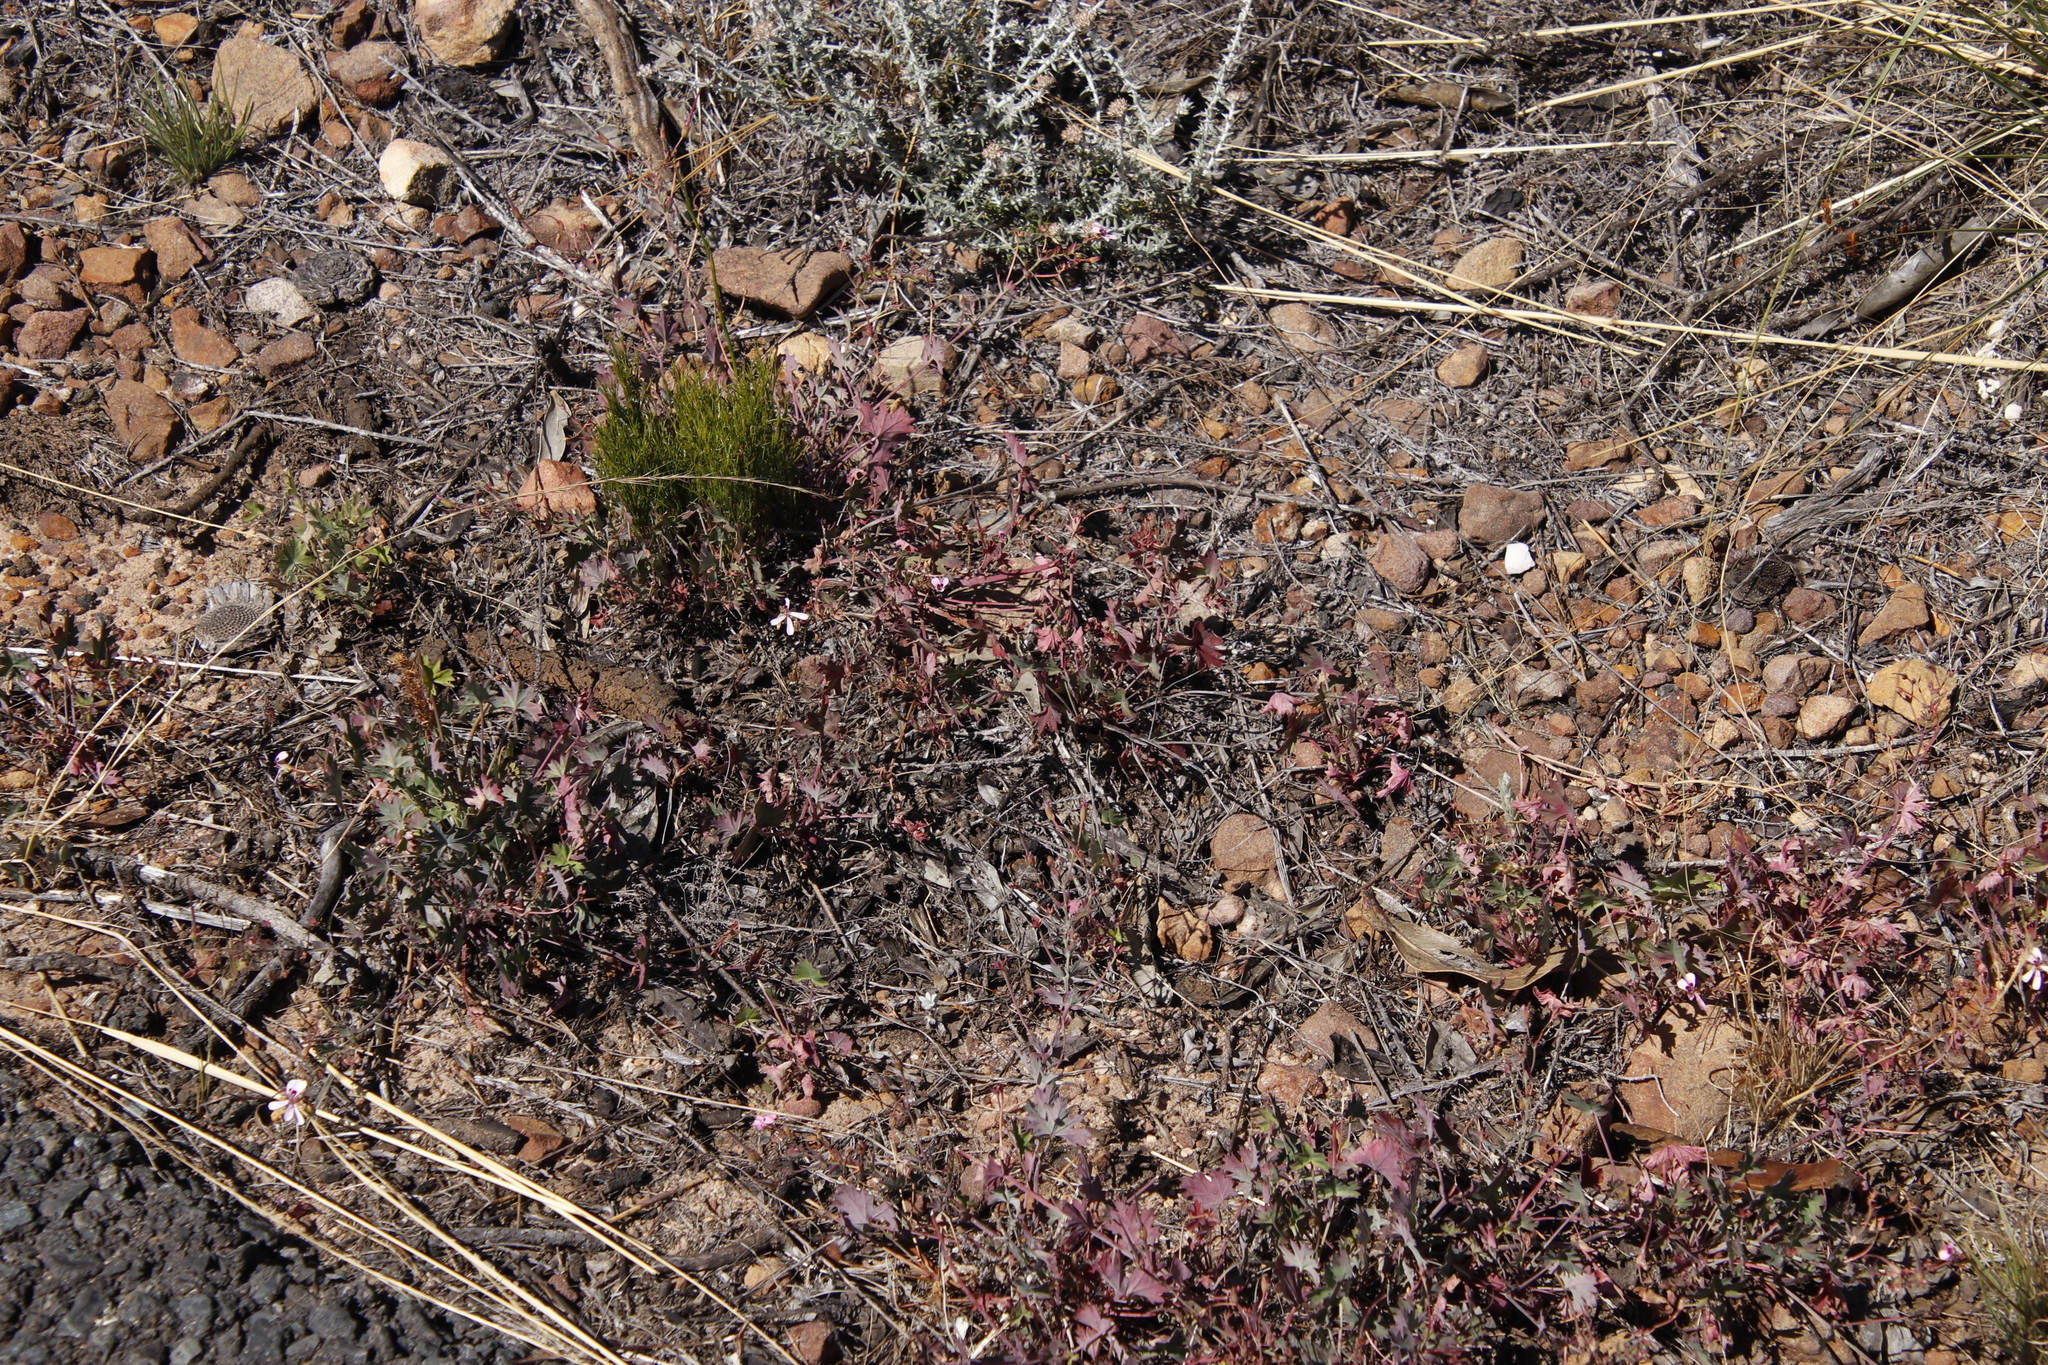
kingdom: Plantae
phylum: Tracheophyta
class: Magnoliopsida
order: Geraniales
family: Geraniaceae
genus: Pelargonium
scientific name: Pelargonium patulum
